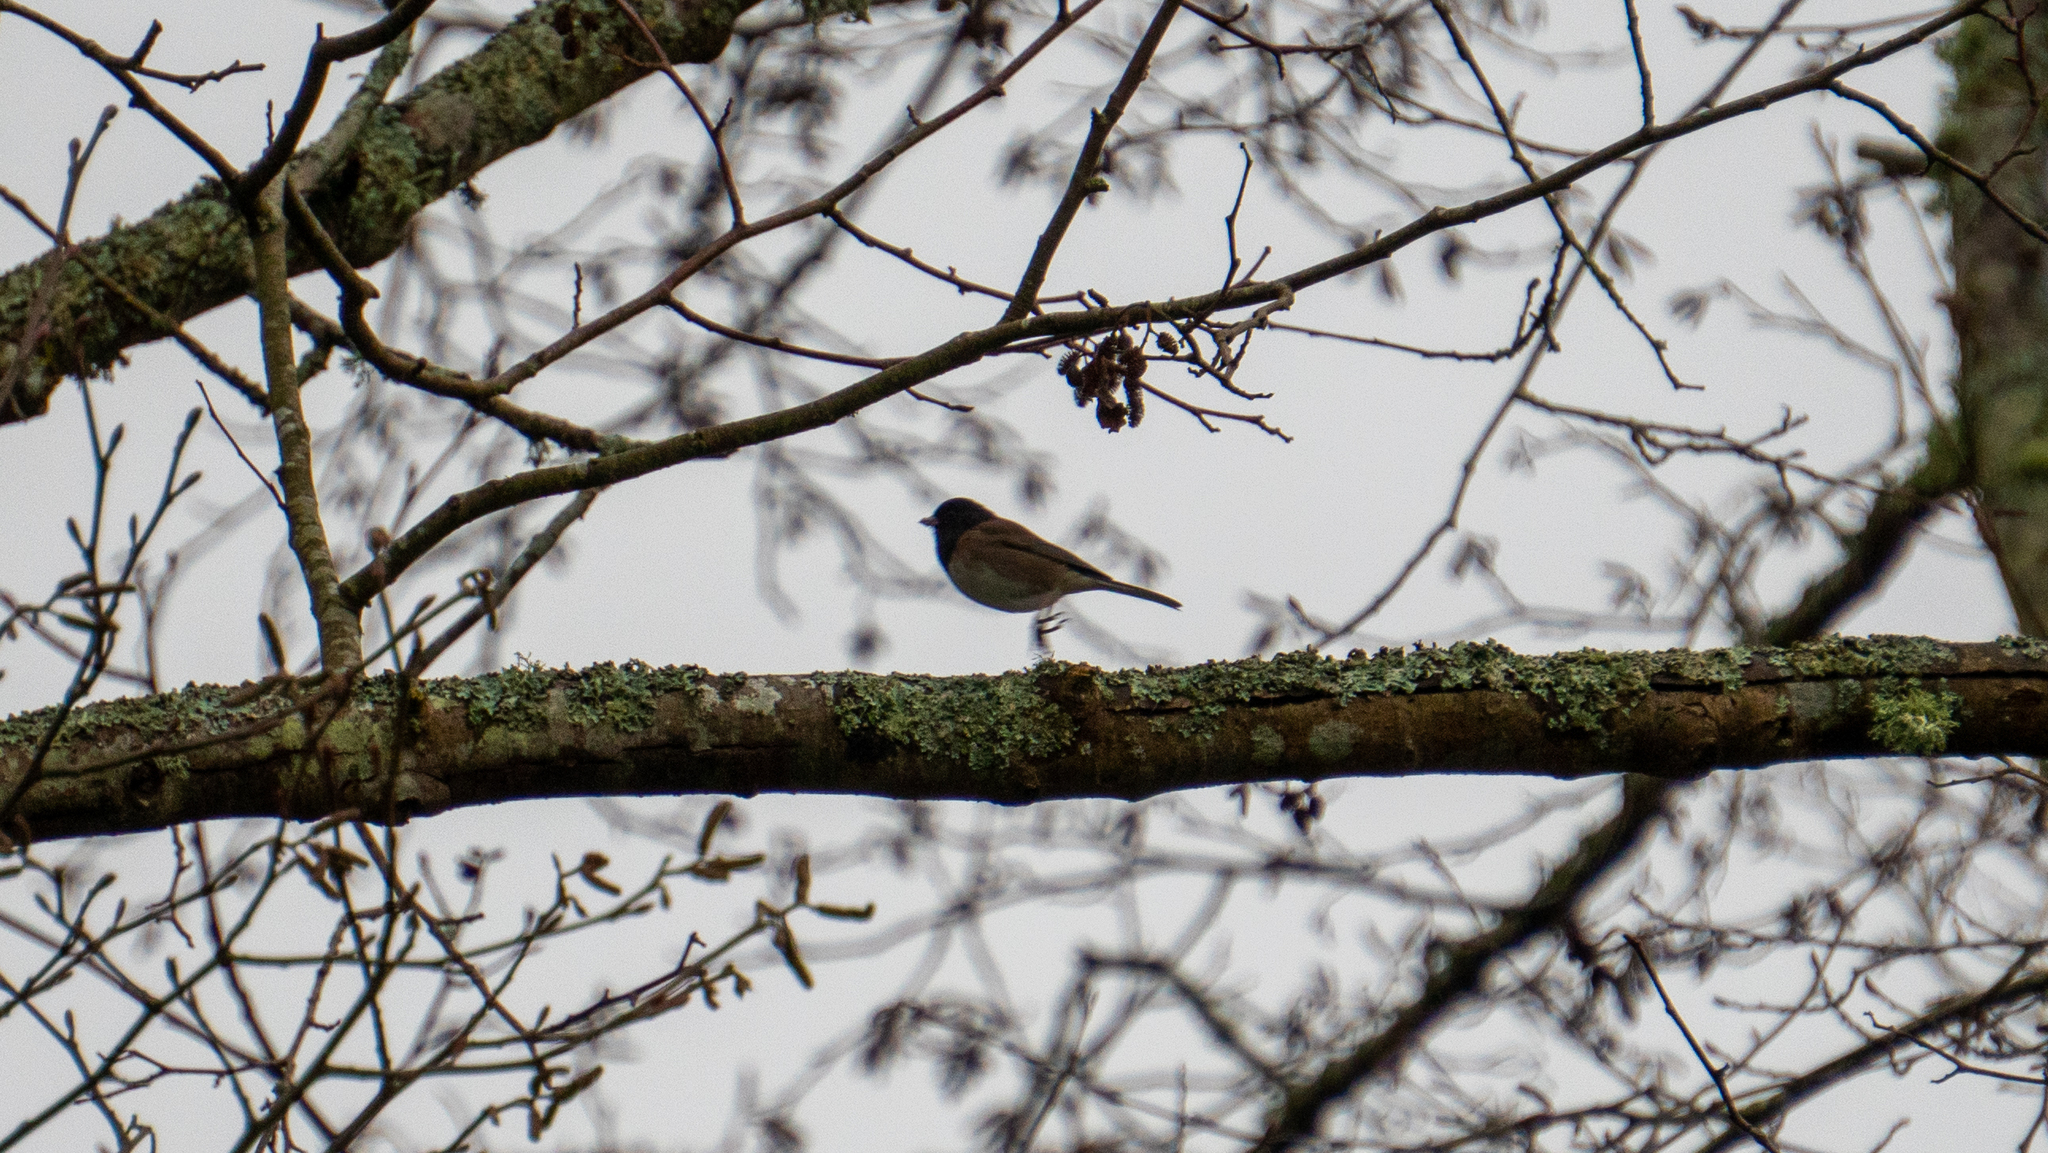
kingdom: Animalia
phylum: Chordata
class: Aves
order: Passeriformes
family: Passerellidae
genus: Junco
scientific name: Junco hyemalis
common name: Dark-eyed junco
